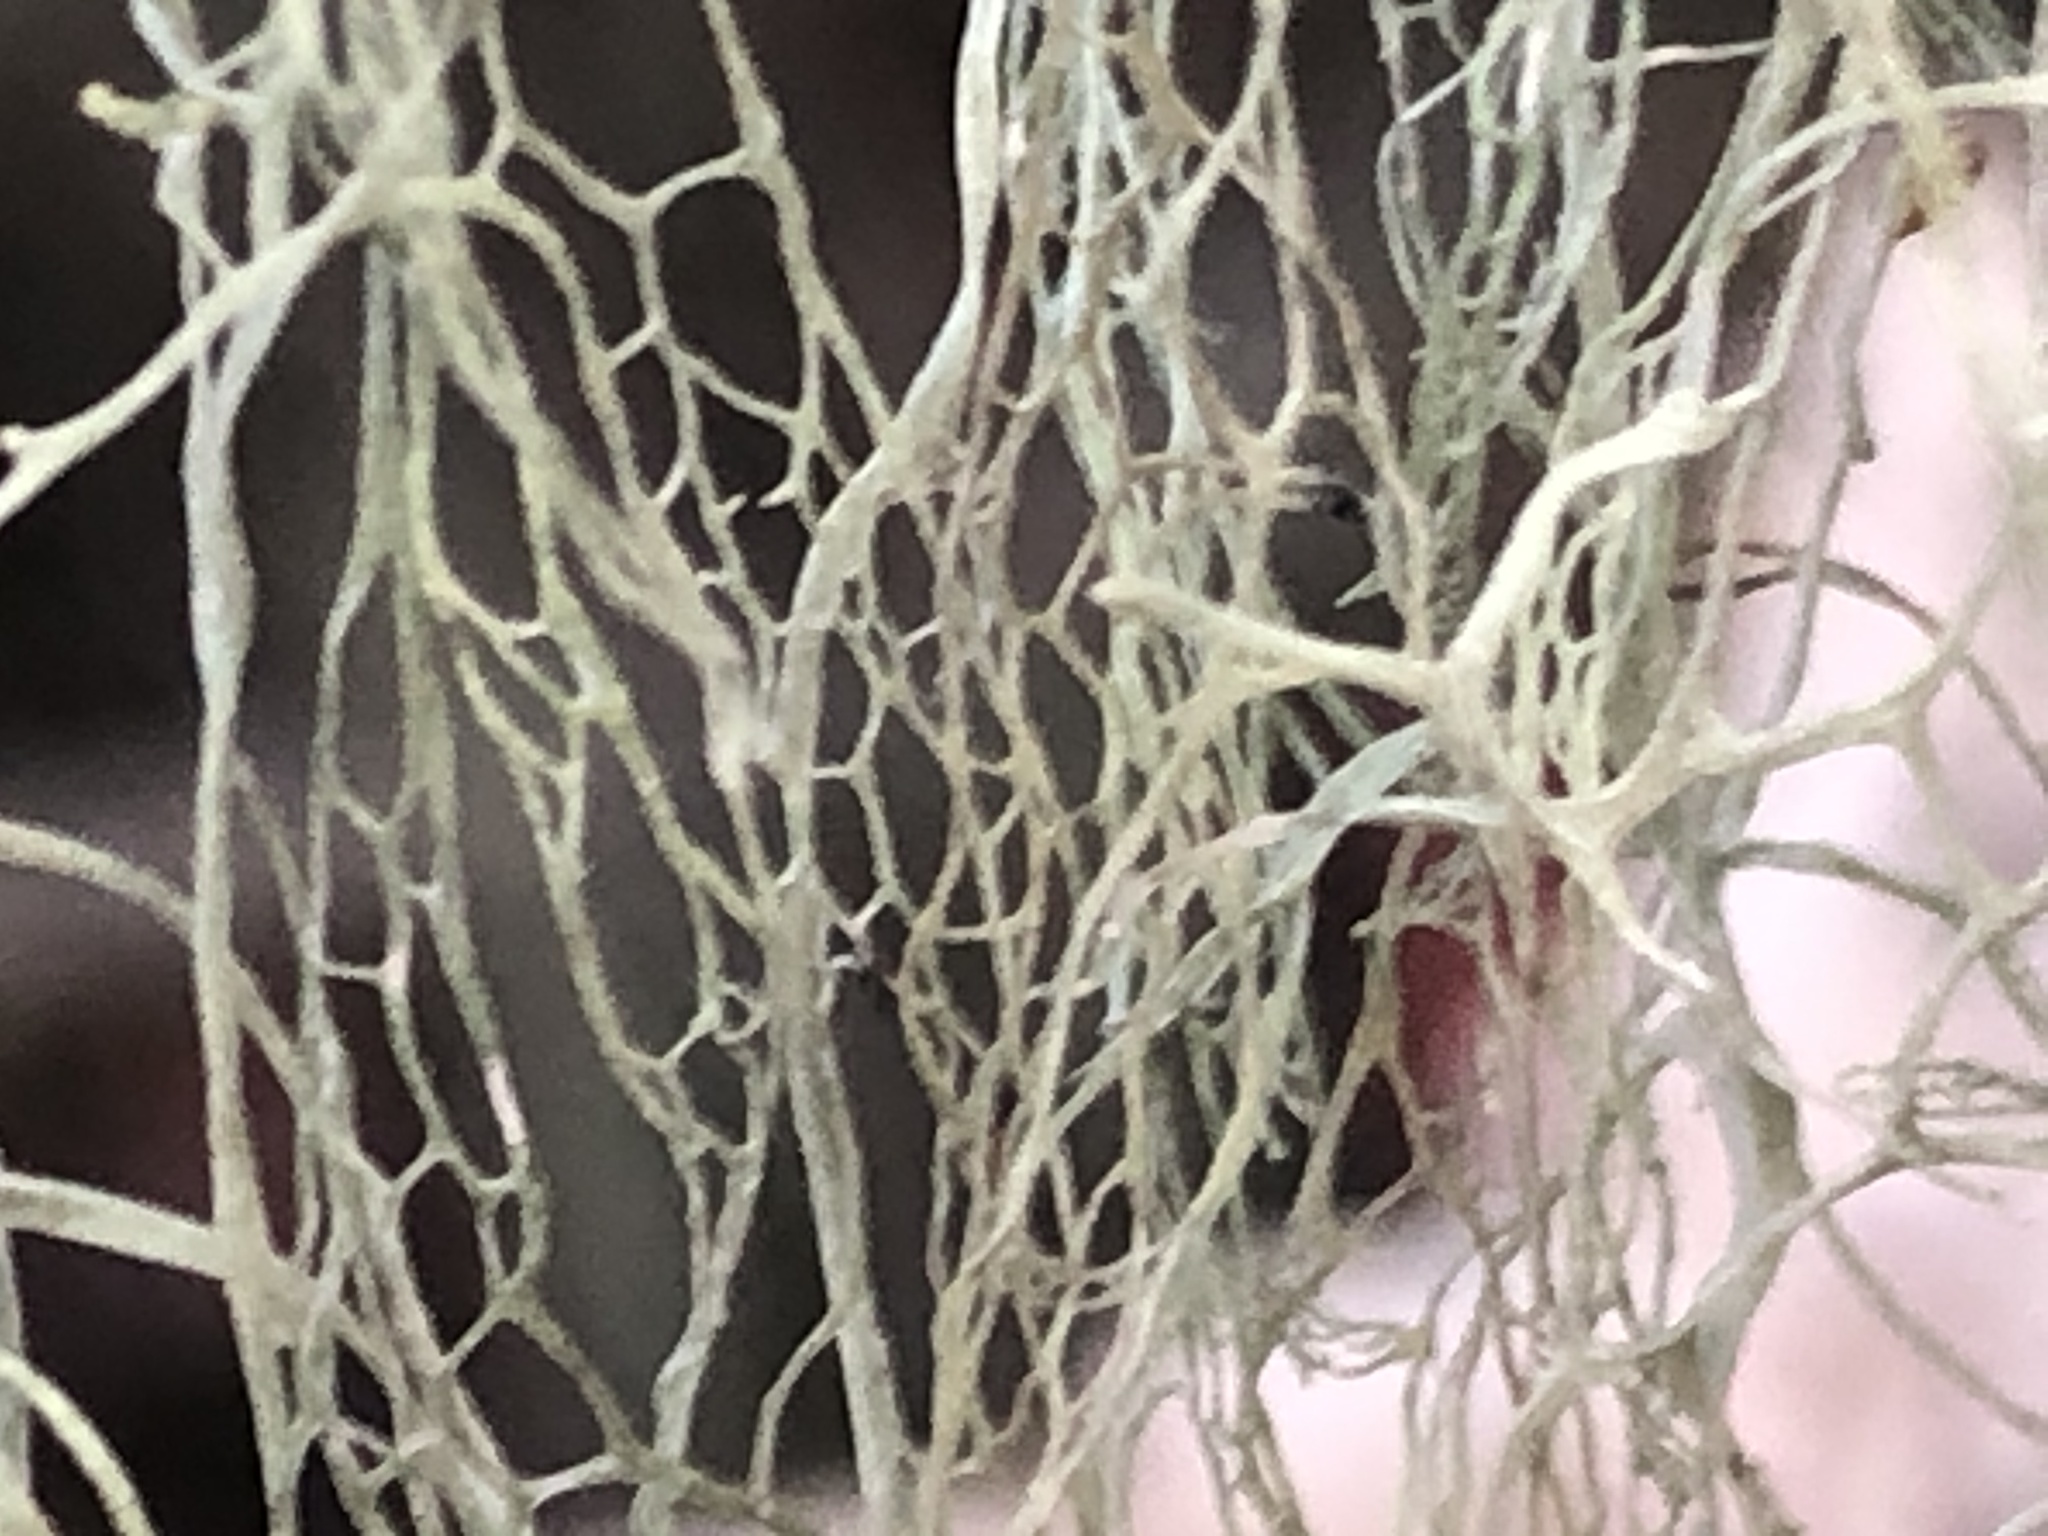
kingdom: Fungi
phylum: Ascomycota
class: Lecanoromycetes
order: Lecanorales
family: Ramalinaceae
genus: Ramalina
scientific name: Ramalina menziesii
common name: Lace lichen
